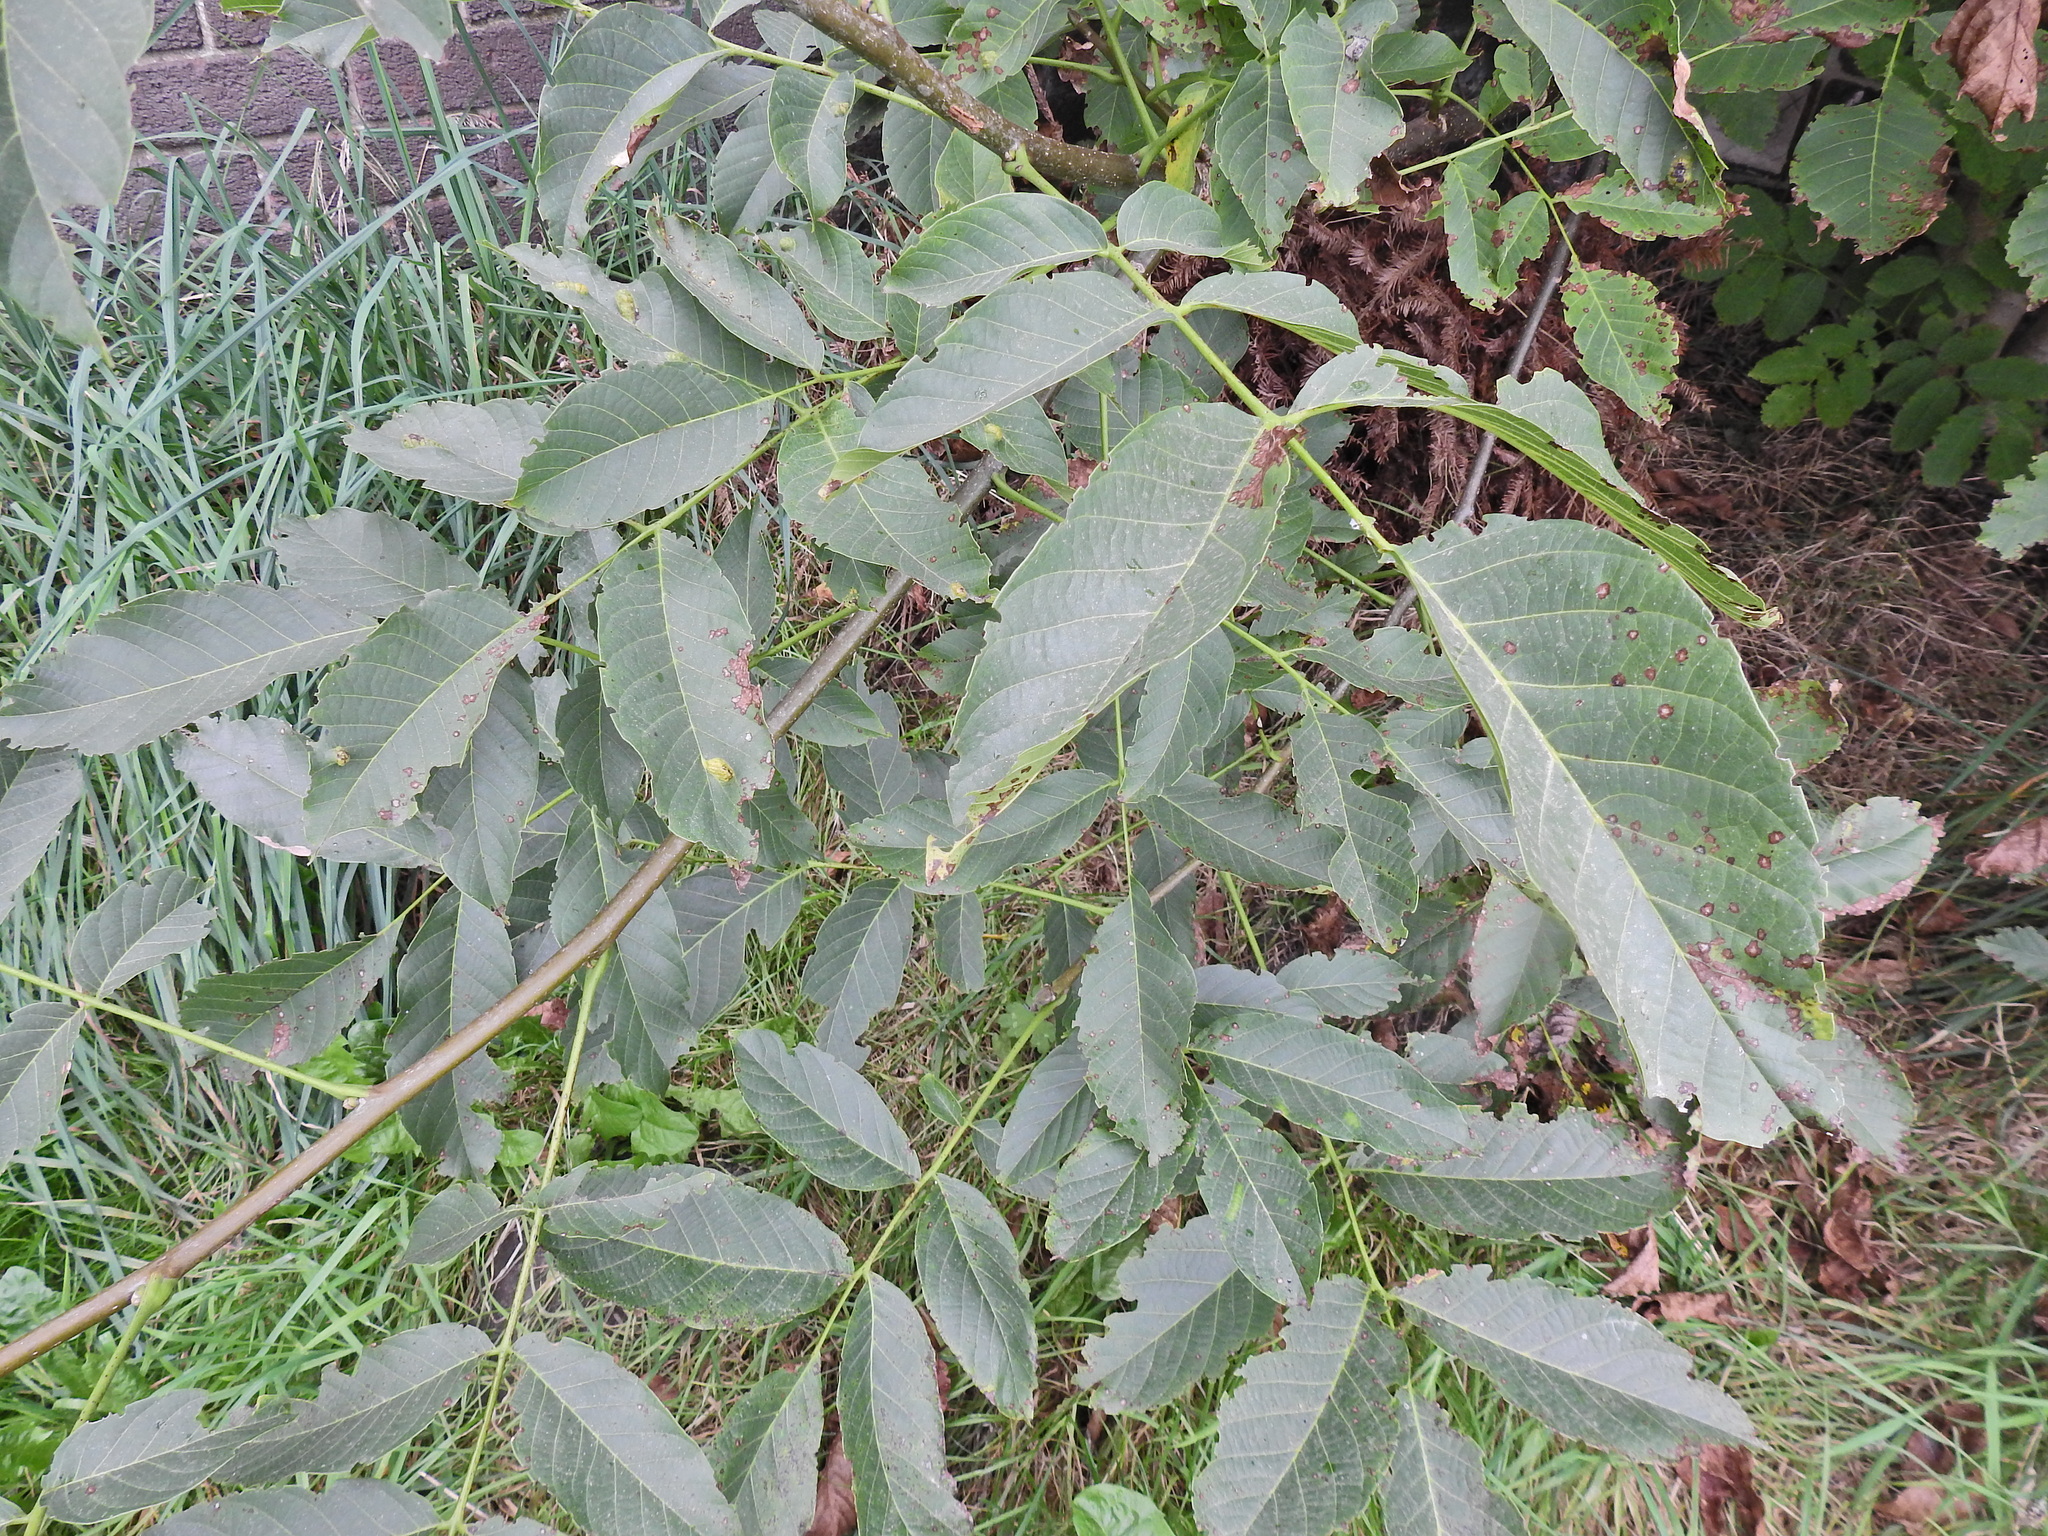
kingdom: Plantae
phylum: Tracheophyta
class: Magnoliopsida
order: Fagales
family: Juglandaceae
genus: Juglans
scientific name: Juglans regia
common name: Walnut
